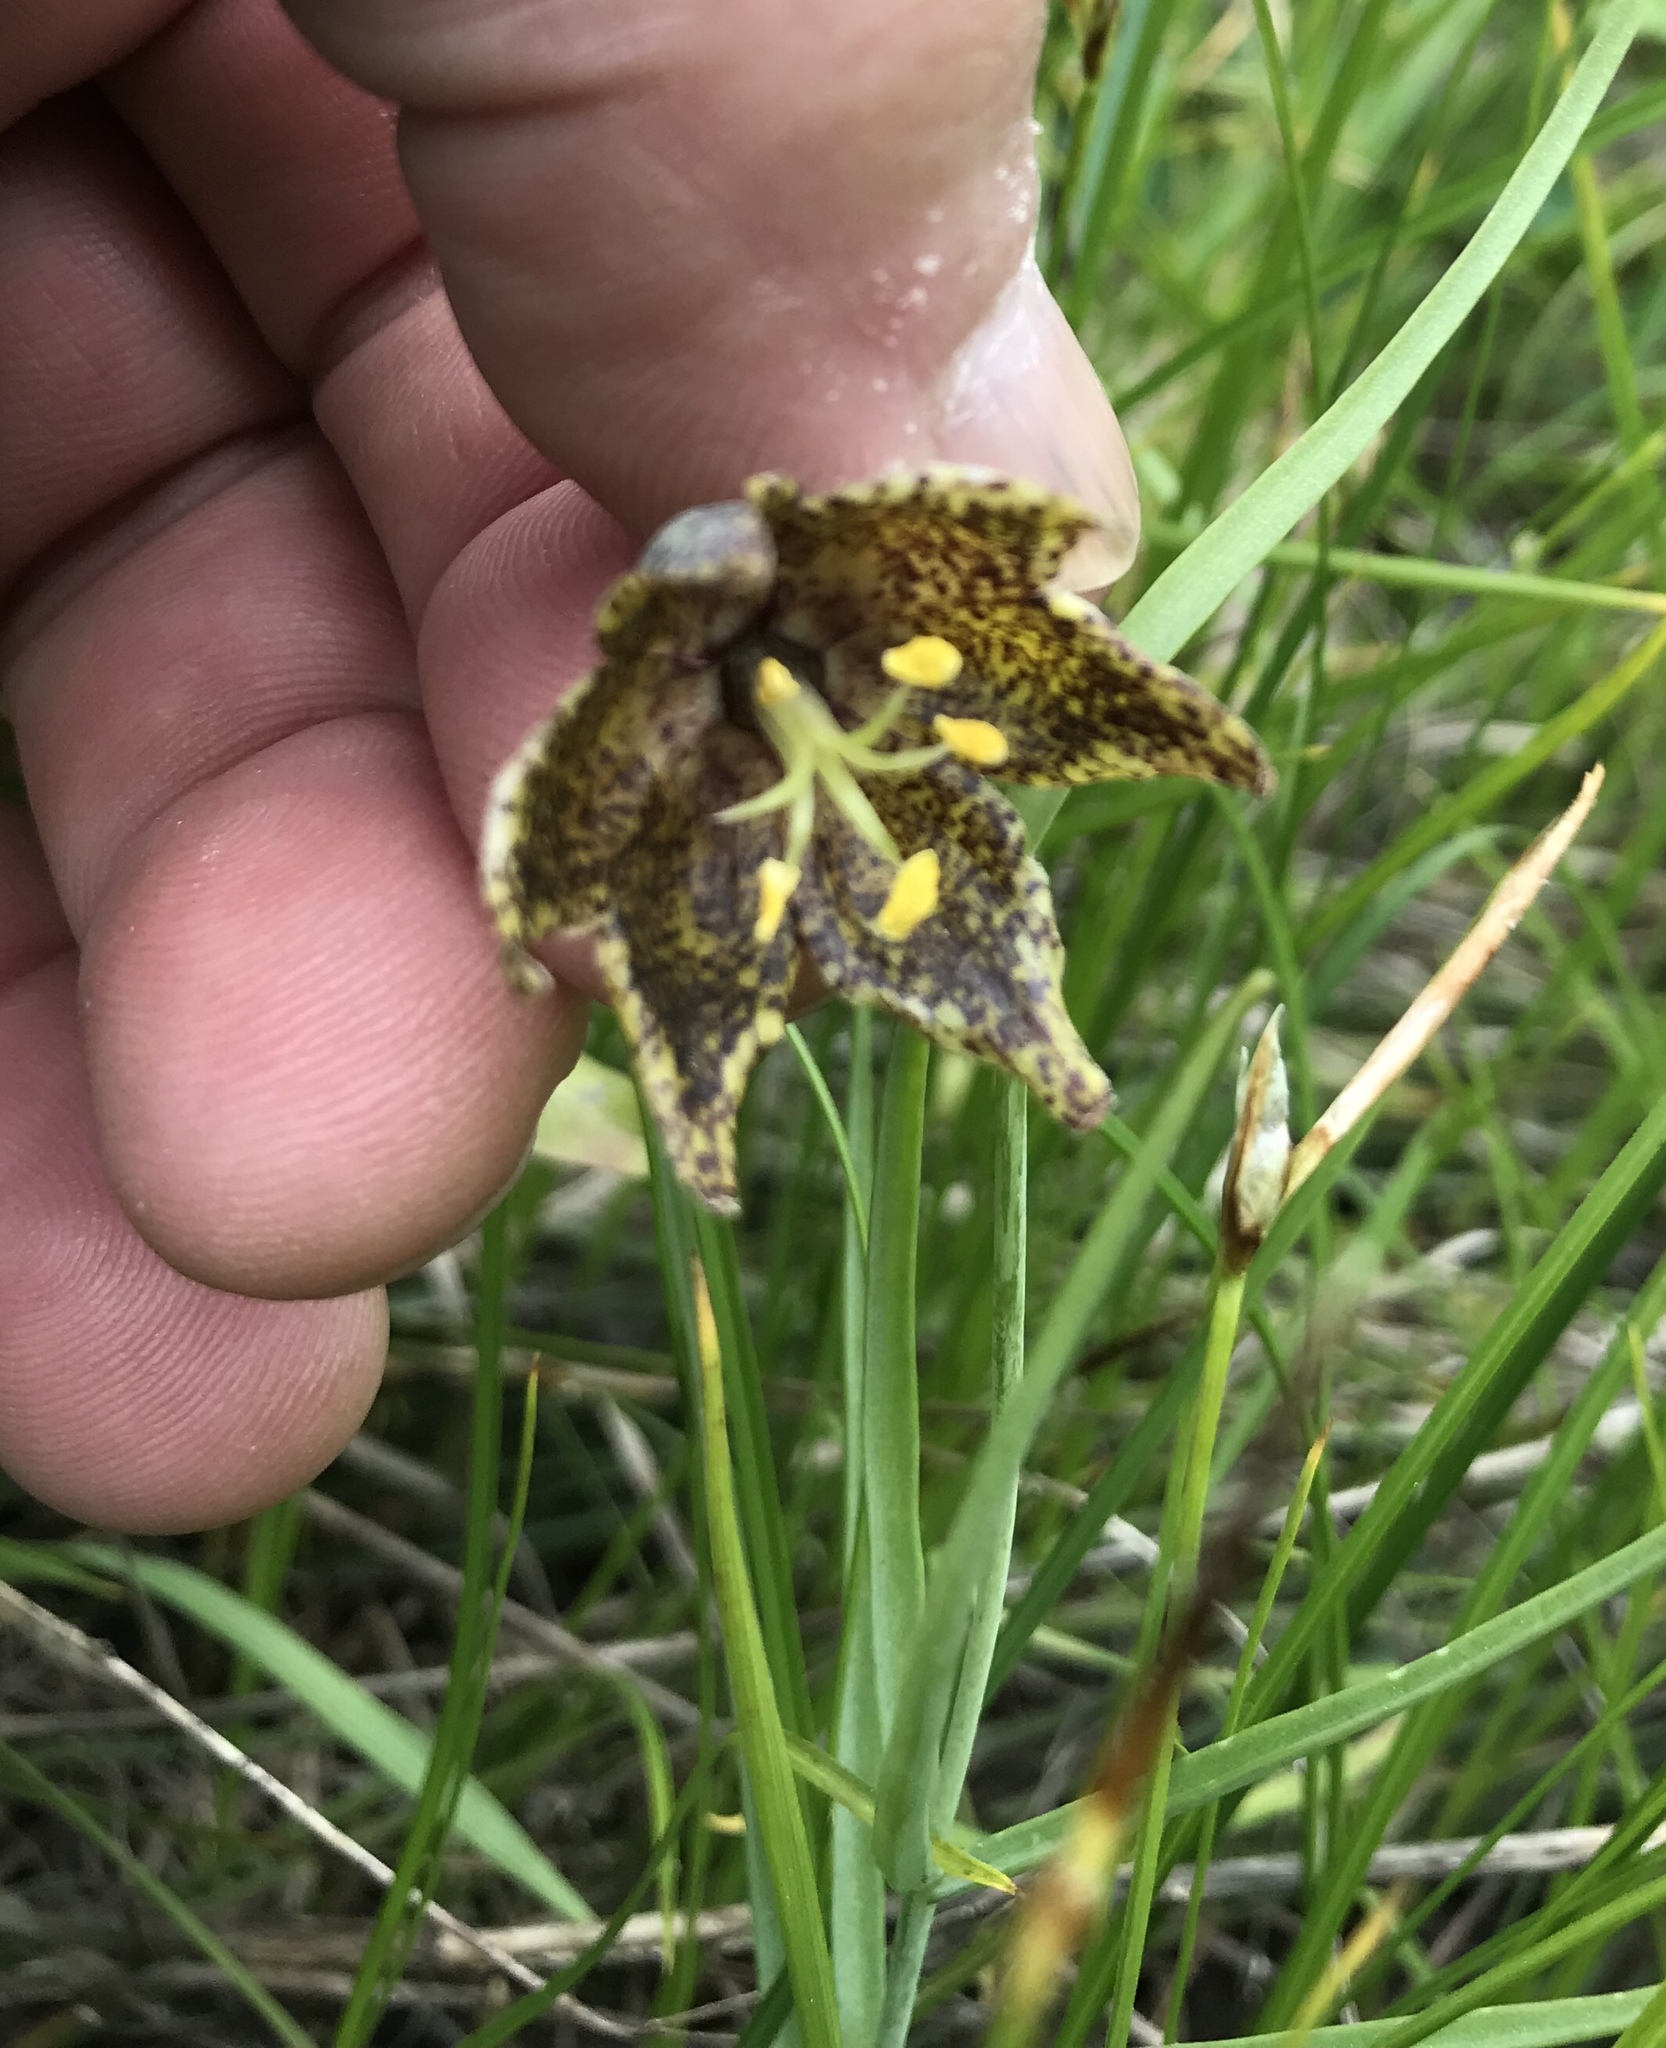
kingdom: Plantae
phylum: Tracheophyta
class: Liliopsida
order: Liliales
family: Liliaceae
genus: Fritillaria
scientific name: Fritillaria atropurpurea
